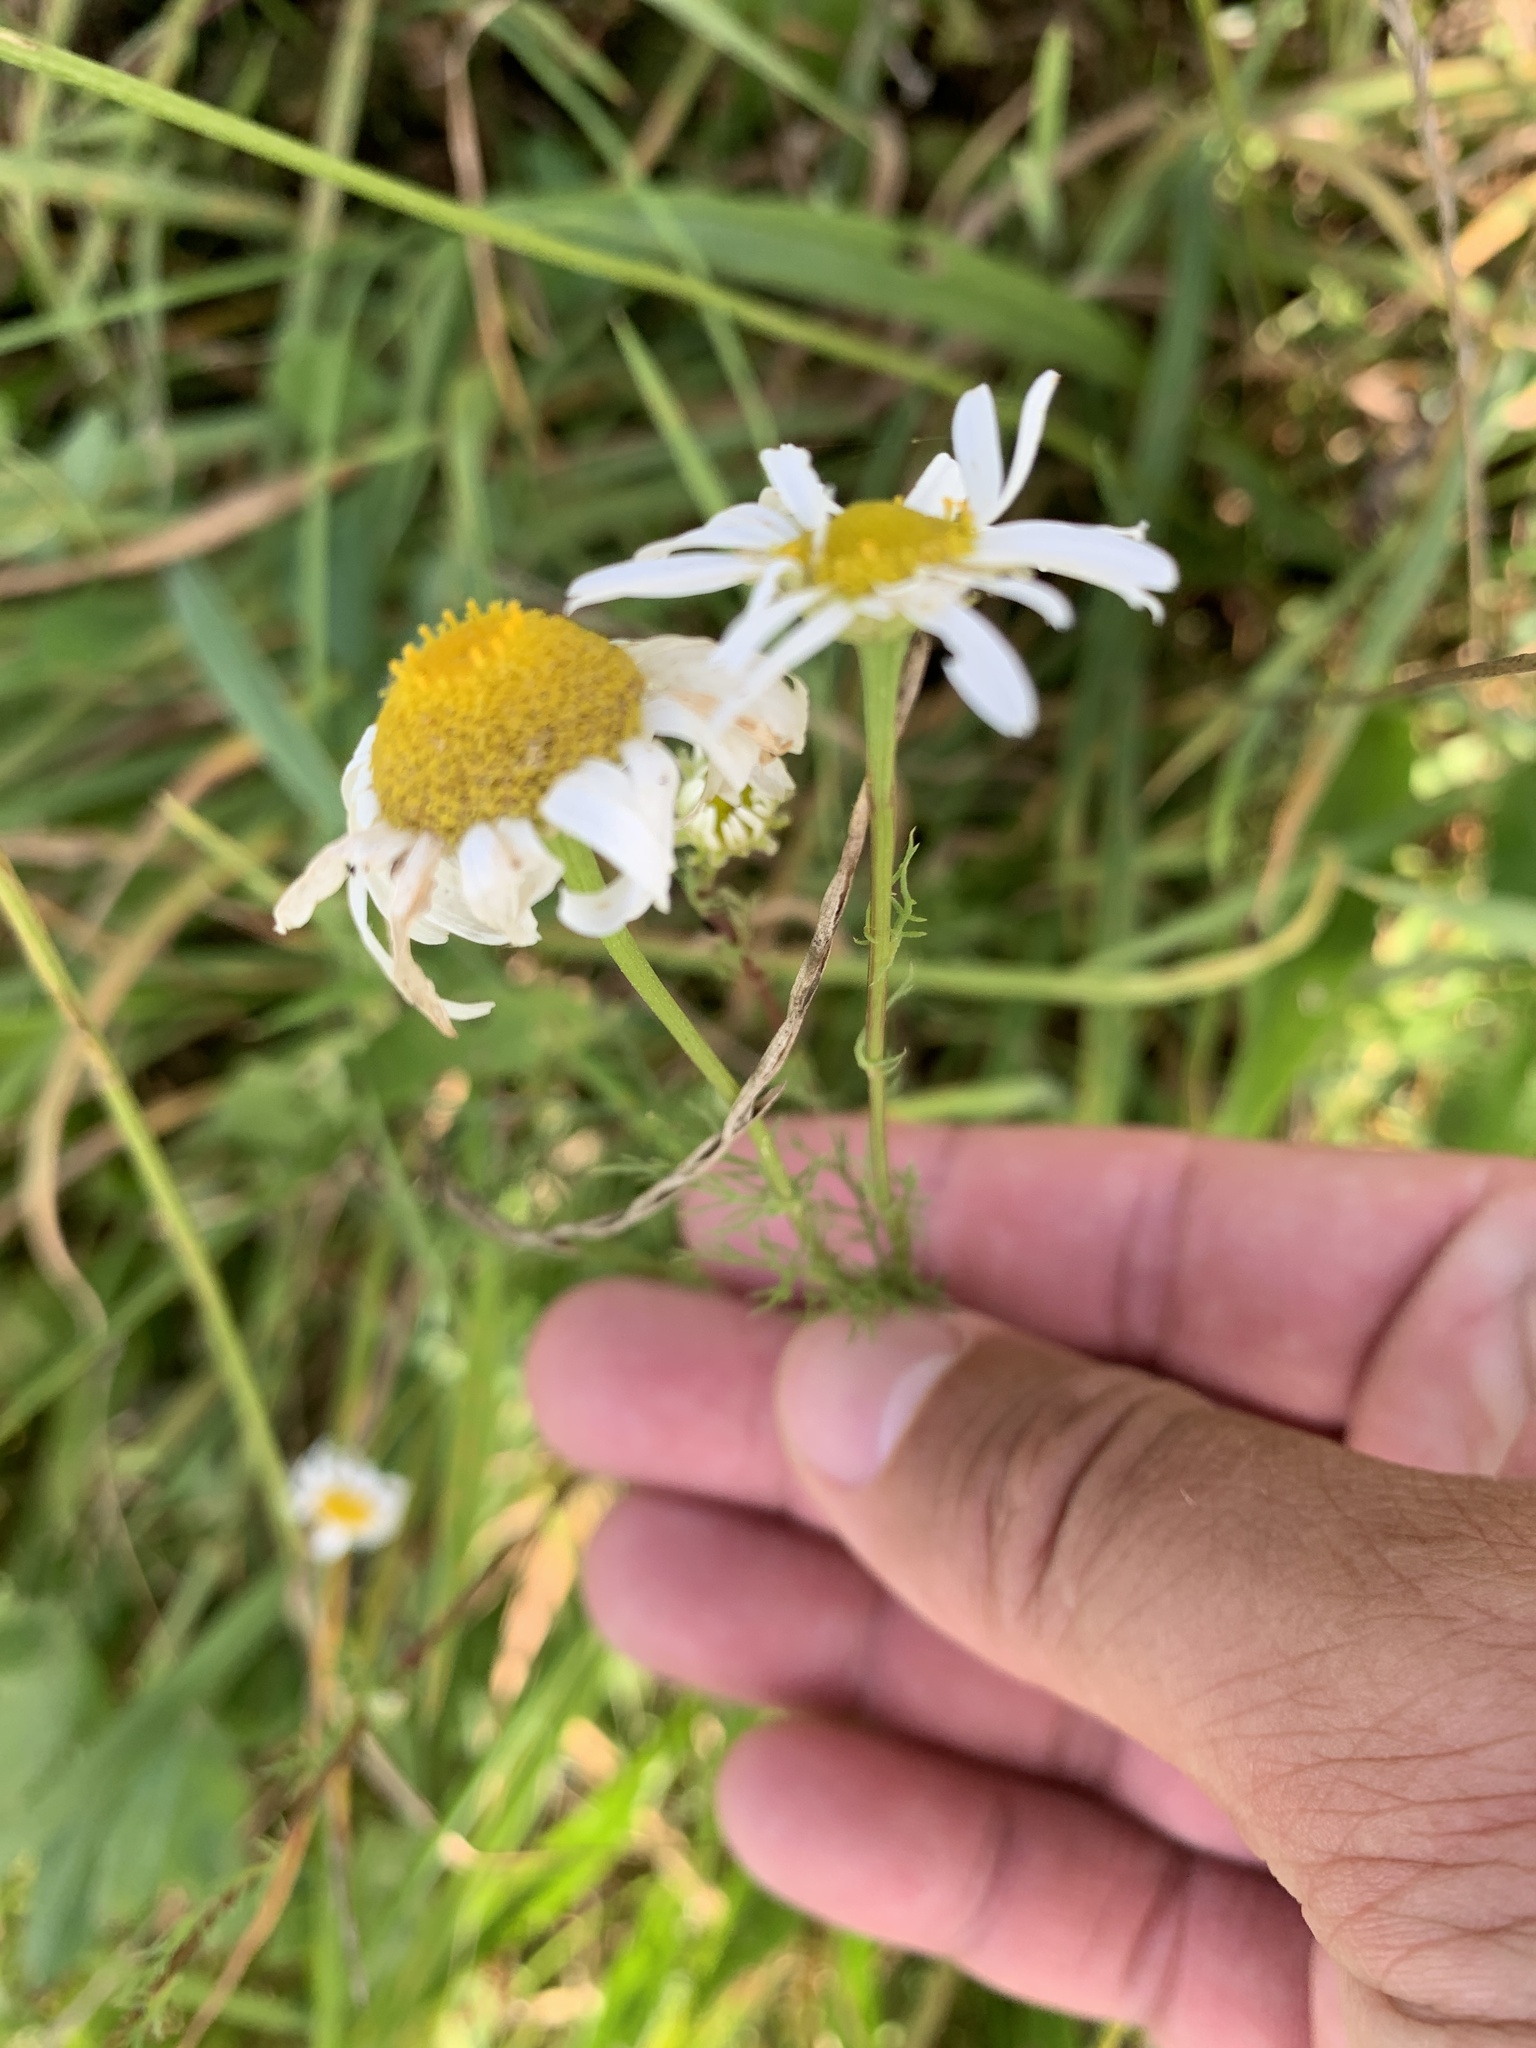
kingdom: Plantae
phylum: Tracheophyta
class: Magnoliopsida
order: Asterales
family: Asteraceae
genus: Tripleurospermum
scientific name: Tripleurospermum inodorum
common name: Scentless mayweed
